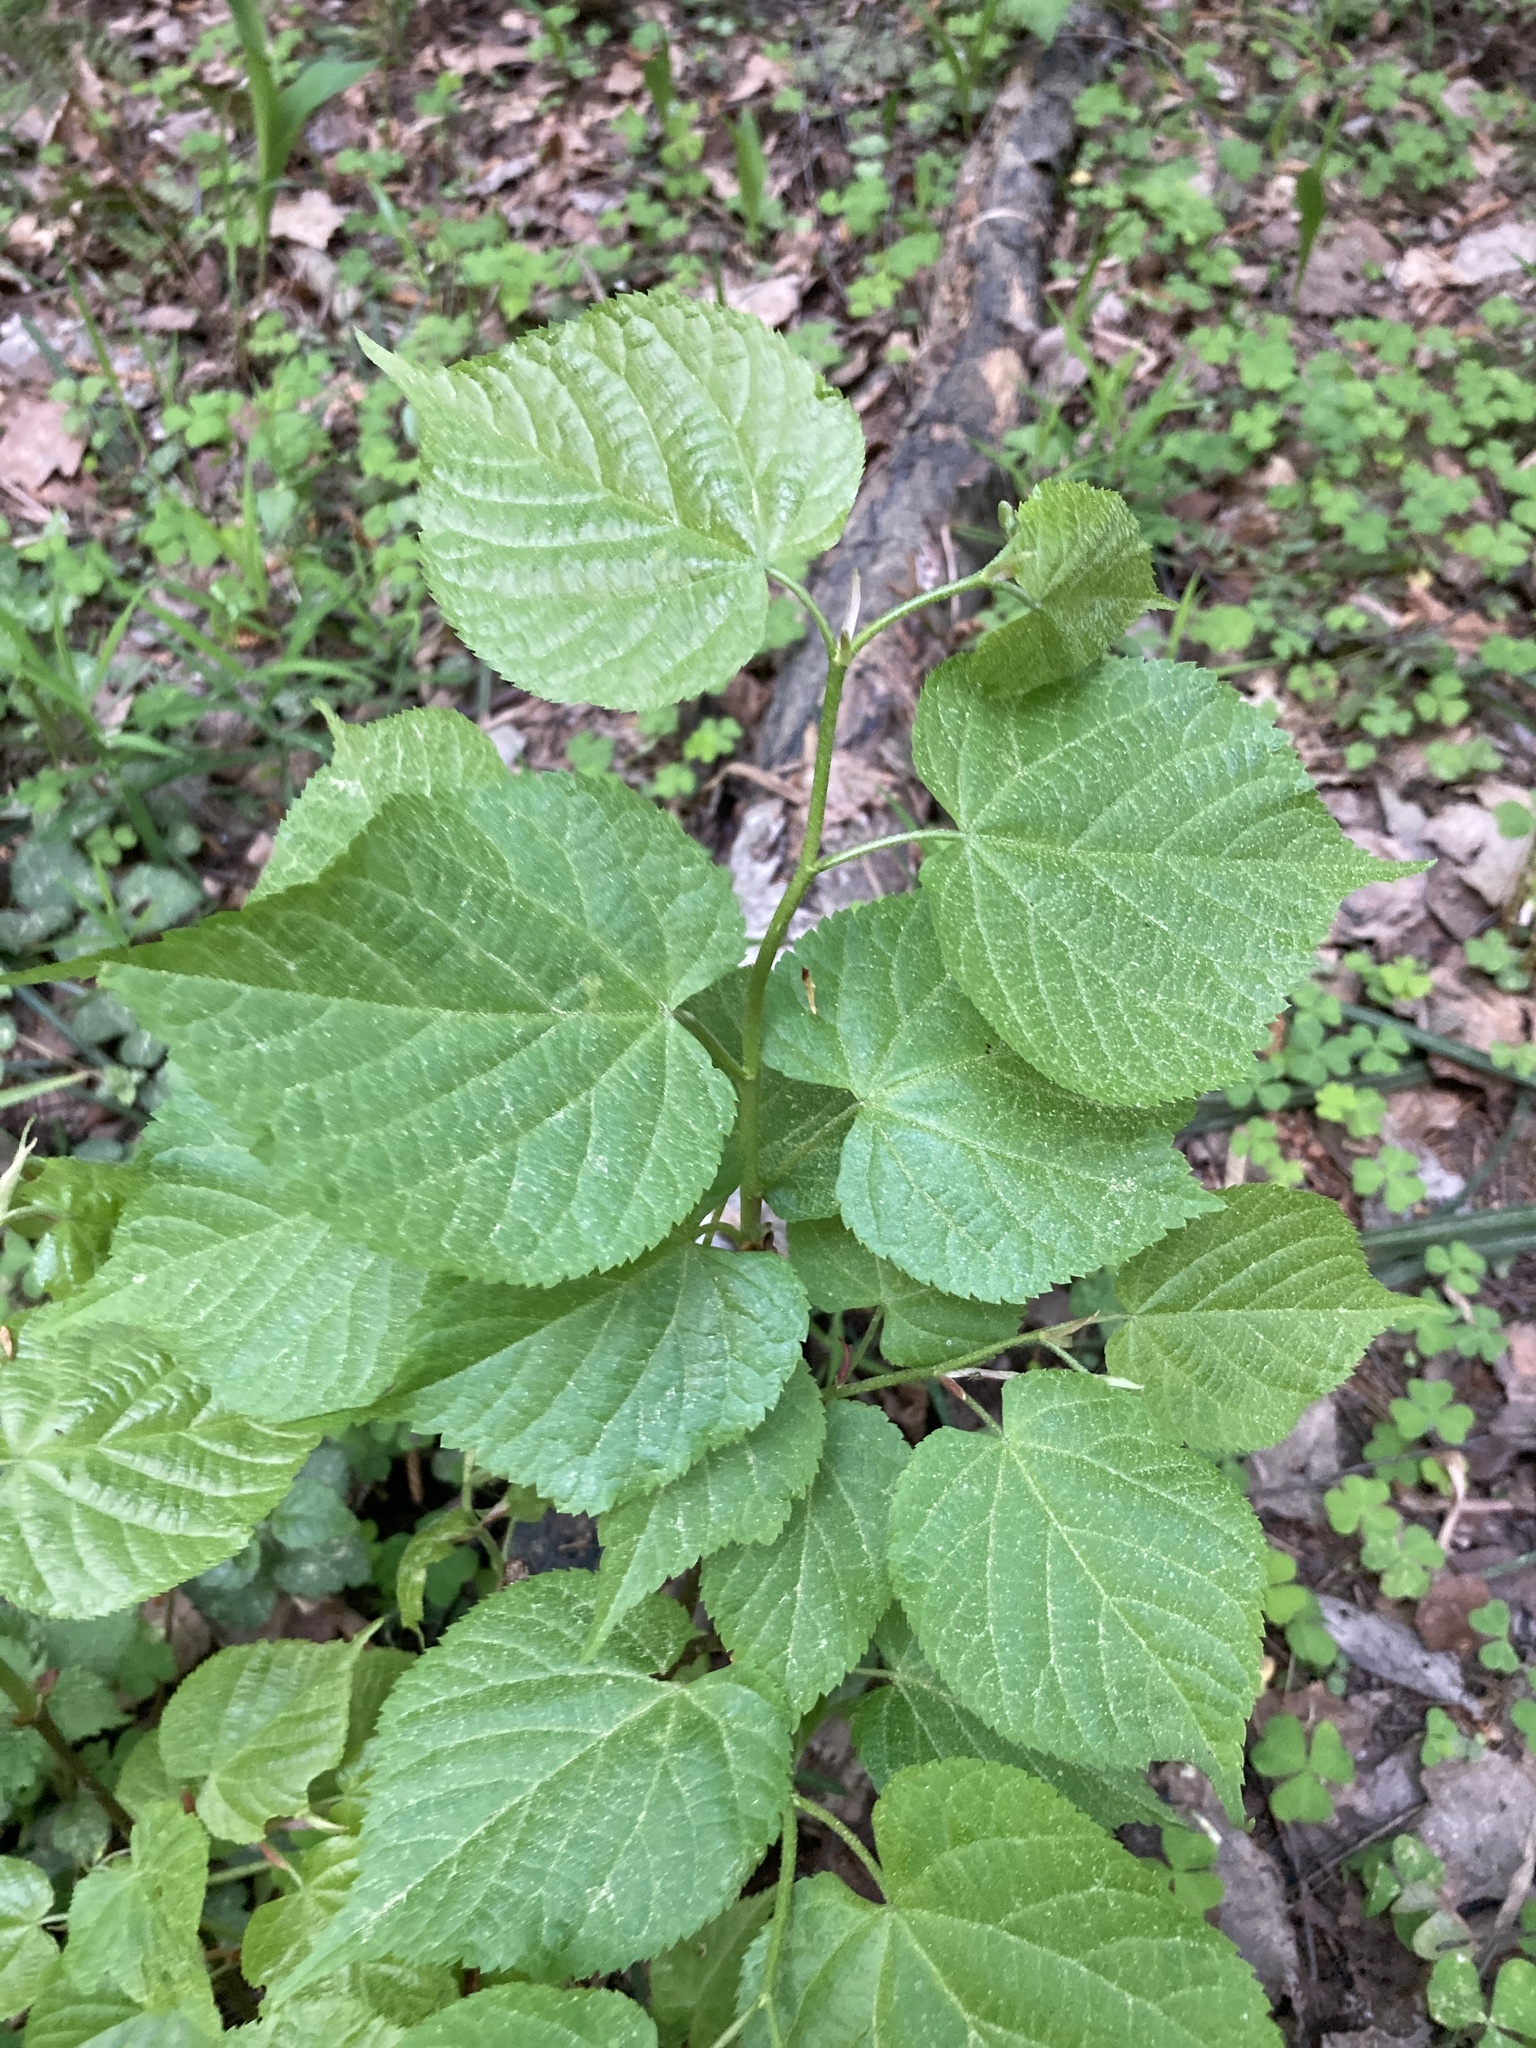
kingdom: Plantae
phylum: Tracheophyta
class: Magnoliopsida
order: Malvales
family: Malvaceae
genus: Tilia
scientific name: Tilia cordata
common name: Small-leaved lime
